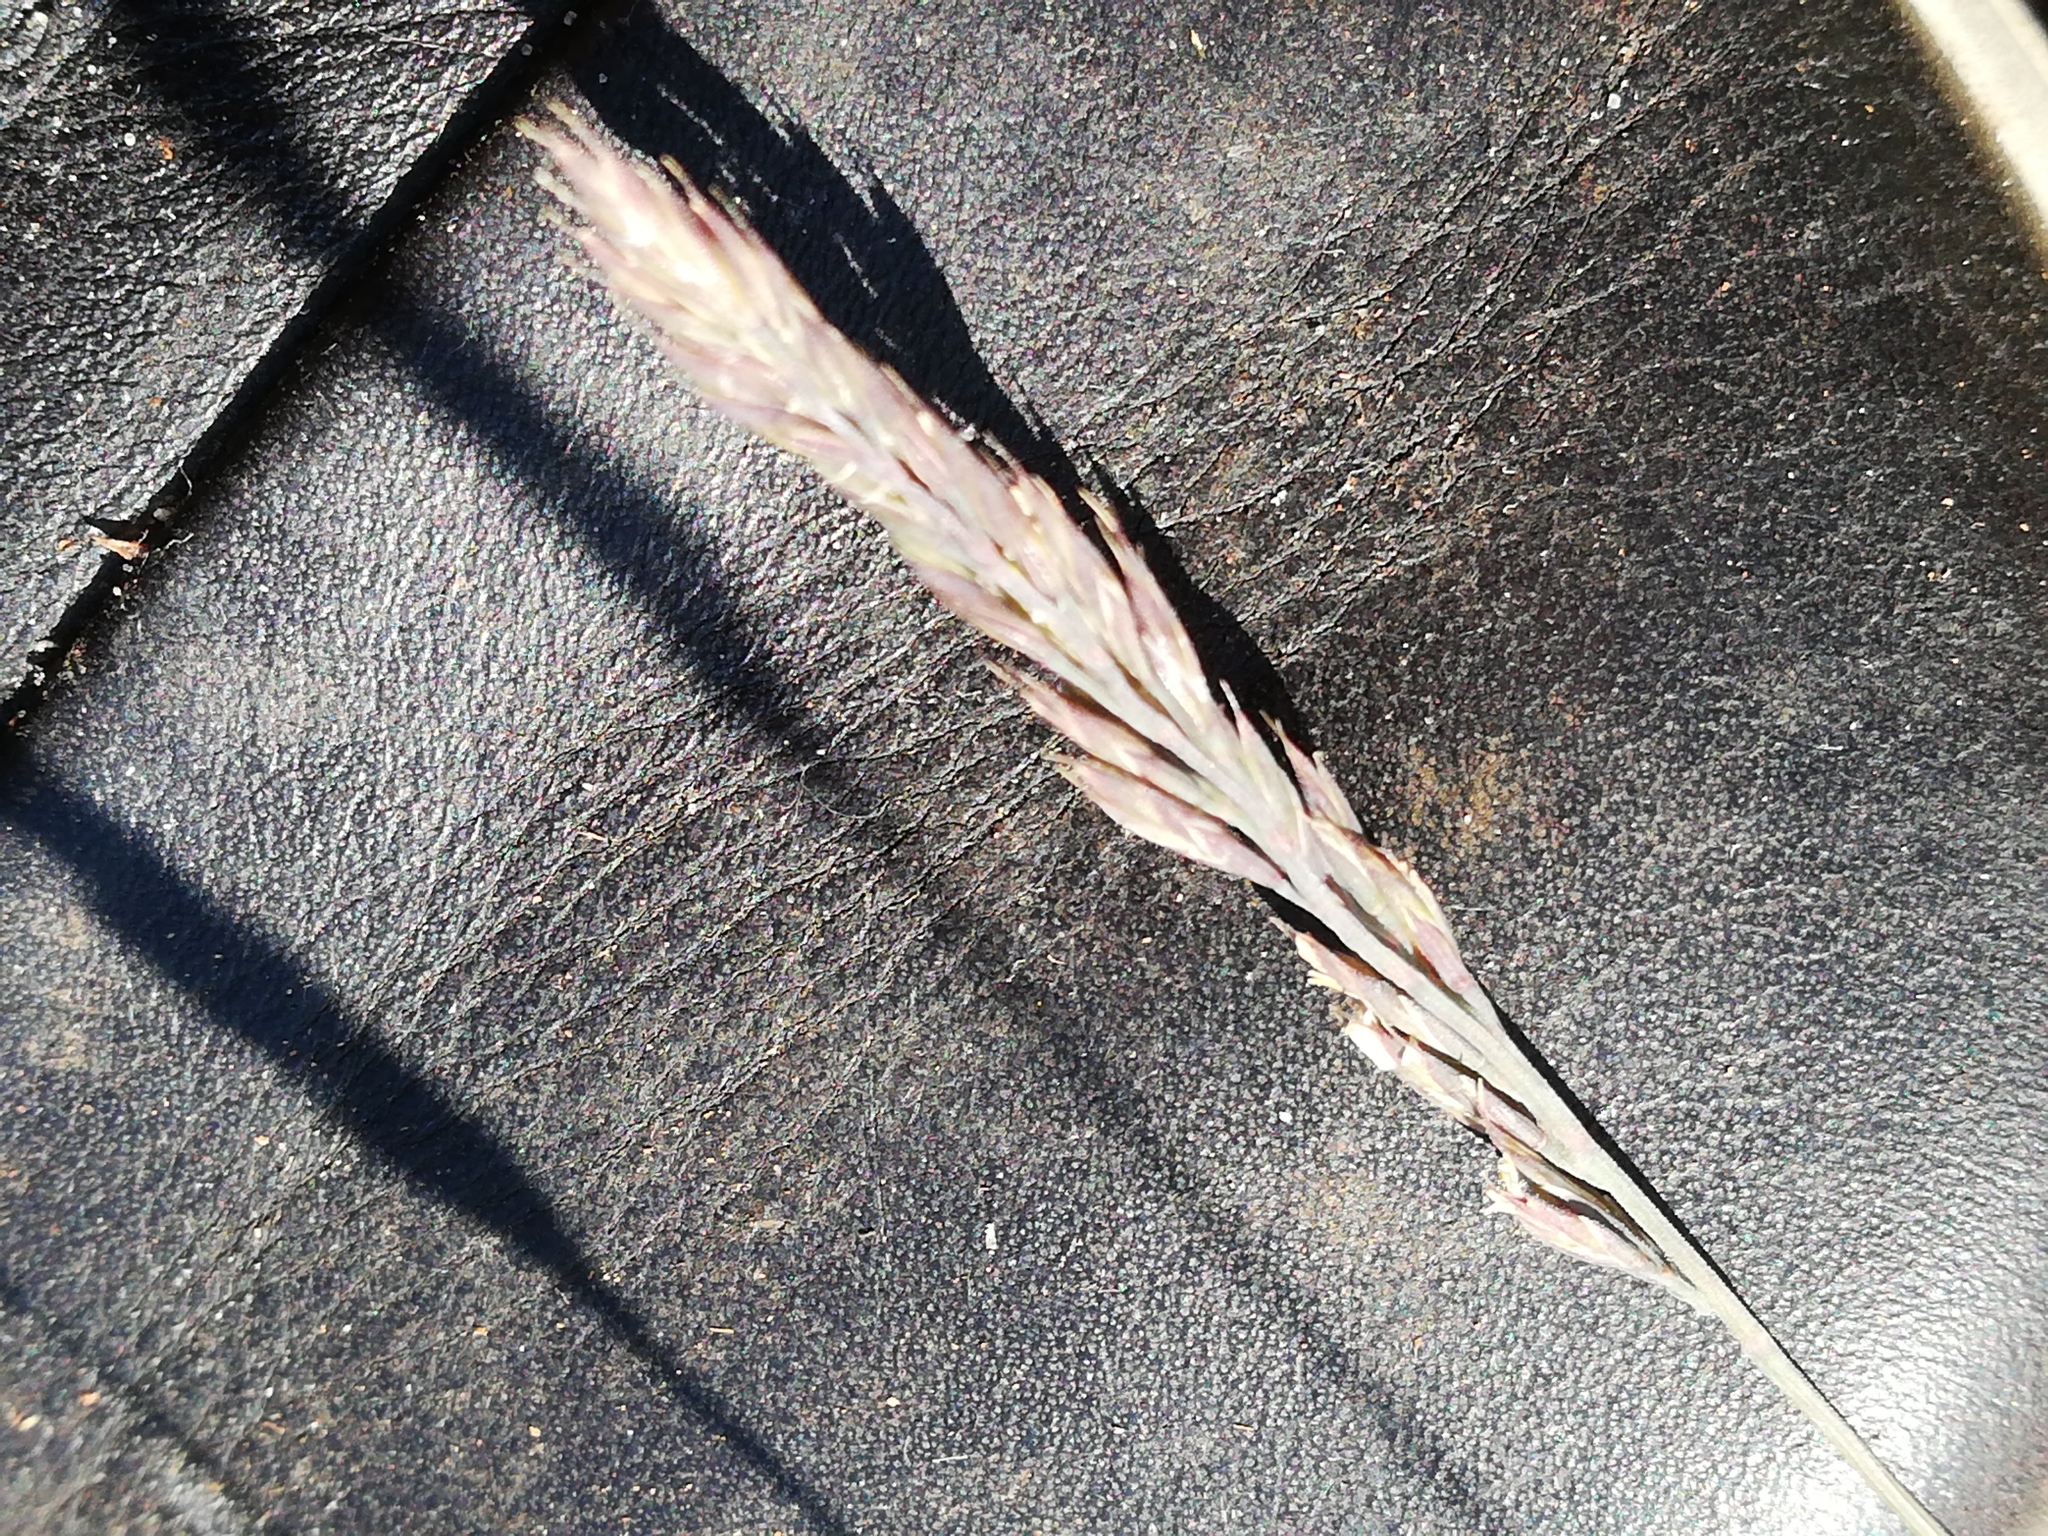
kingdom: Plantae
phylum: Tracheophyta
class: Liliopsida
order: Poales
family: Poaceae
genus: Festuca
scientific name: Festuca ovina
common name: Sheep fescue
